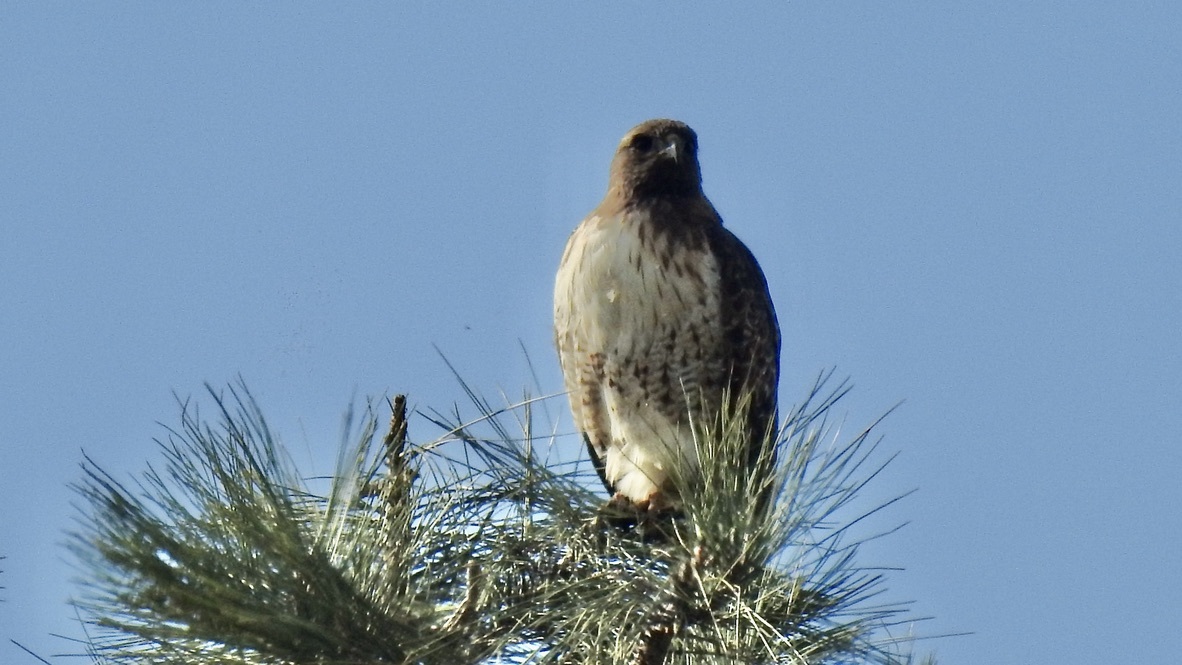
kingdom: Animalia
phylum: Chordata
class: Aves
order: Accipitriformes
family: Accipitridae
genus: Buteo
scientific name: Buteo jamaicensis
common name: Red-tailed hawk
